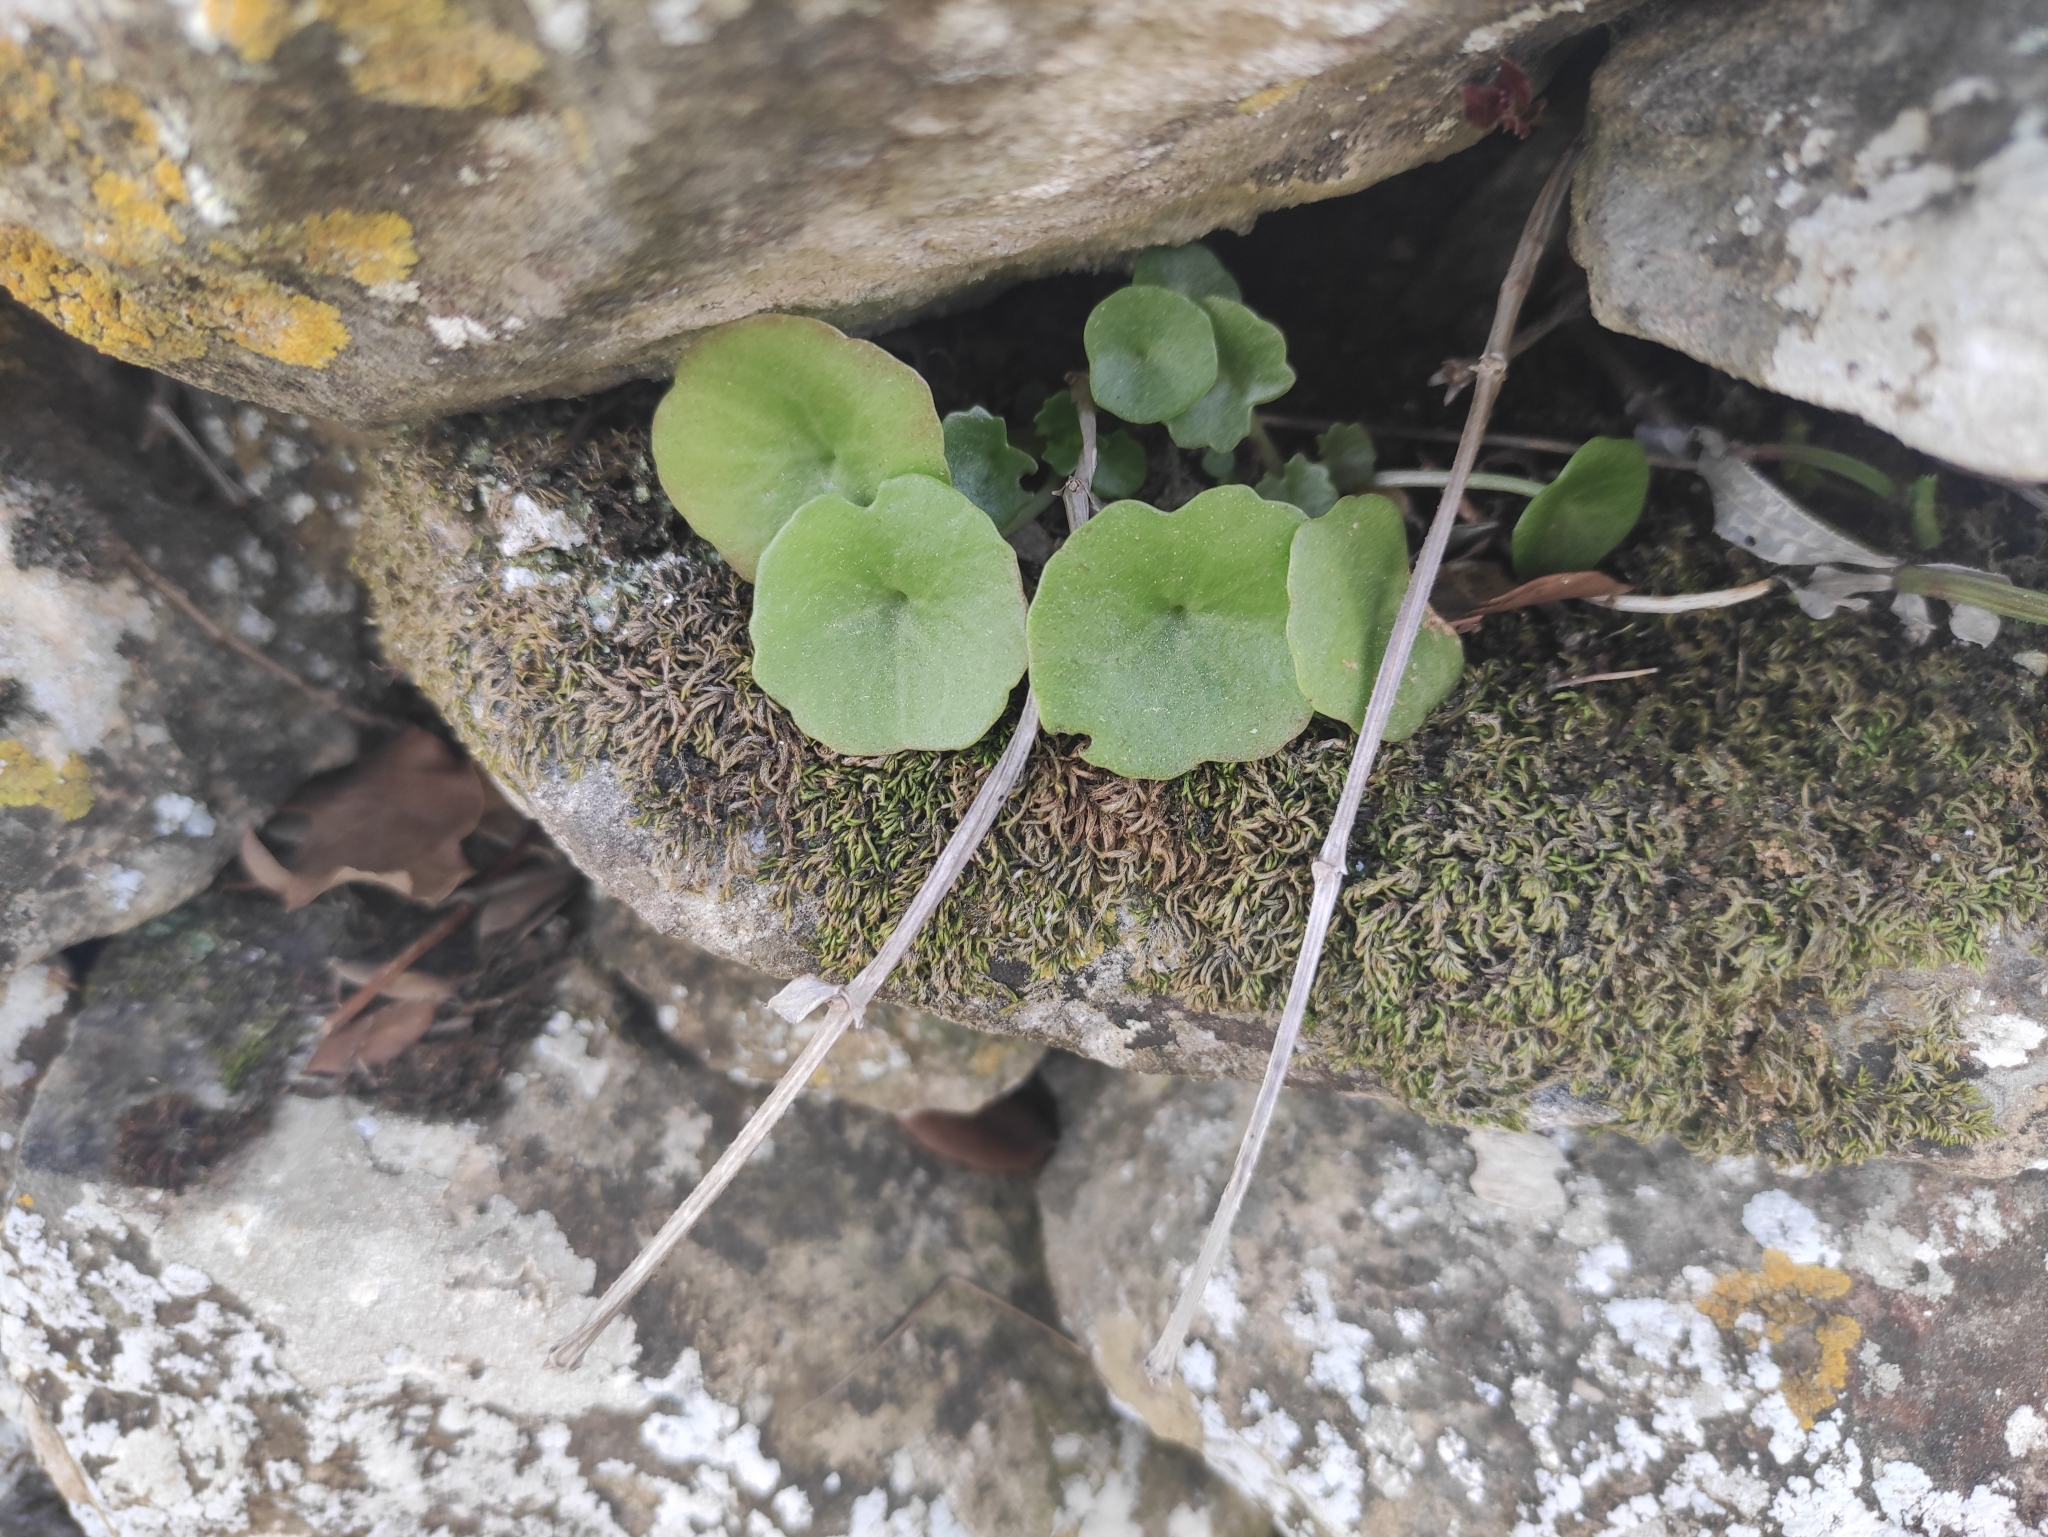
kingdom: Plantae
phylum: Tracheophyta
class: Magnoliopsida
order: Saxifragales
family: Crassulaceae
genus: Umbilicus
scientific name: Umbilicus rupestris
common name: Navelwort
